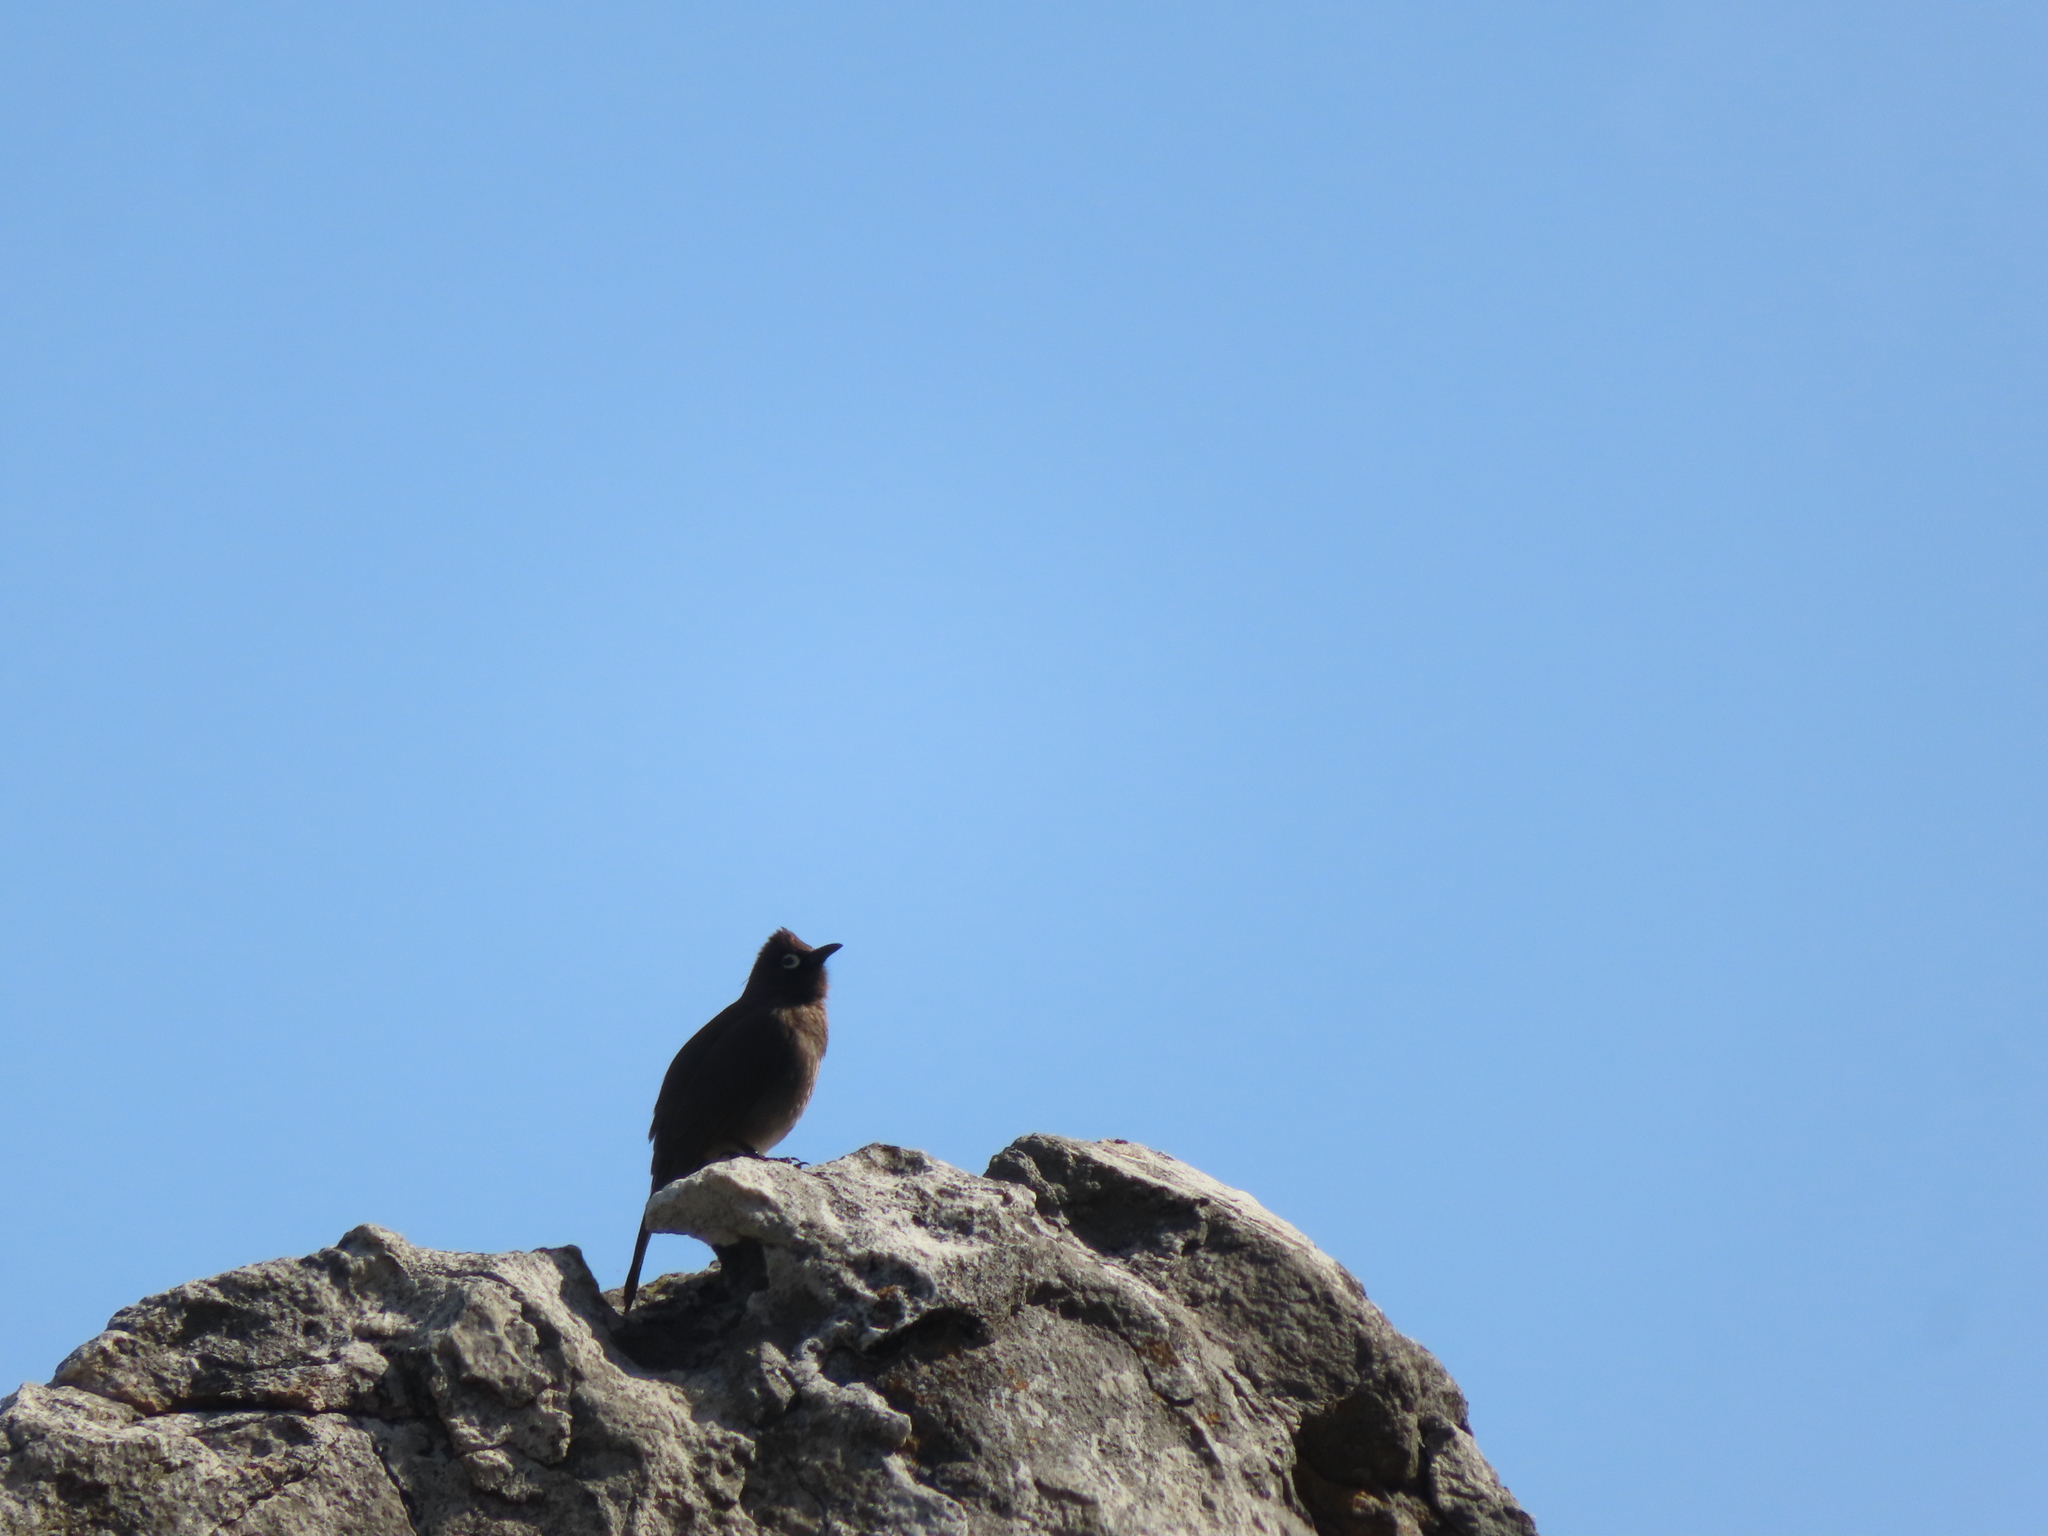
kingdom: Animalia
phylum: Chordata
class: Aves
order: Passeriformes
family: Pycnonotidae
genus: Pycnonotus
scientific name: Pycnonotus capensis
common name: Cape bulbul
